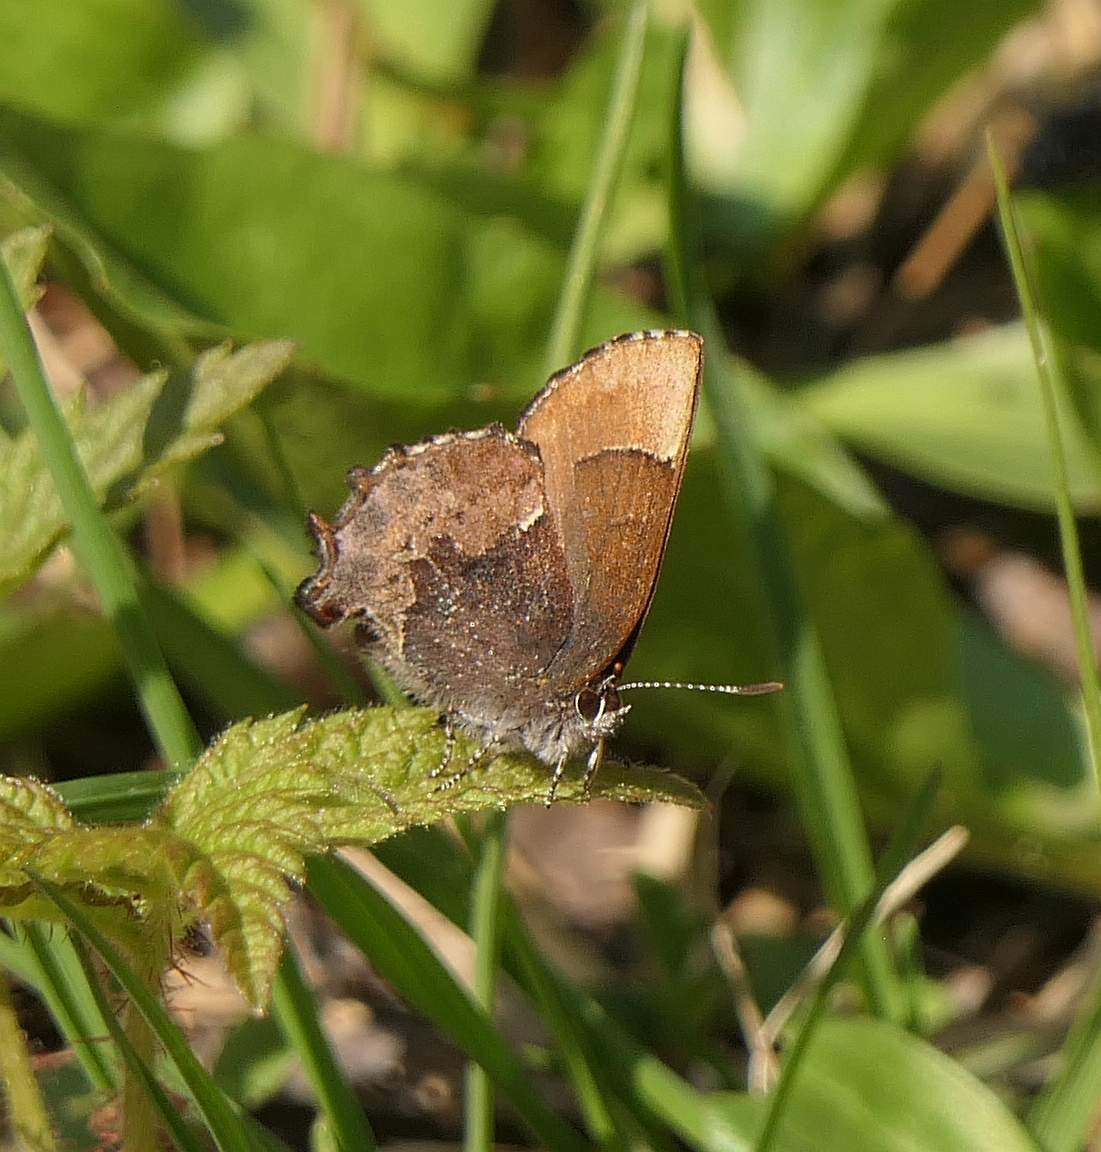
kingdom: Animalia
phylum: Arthropoda
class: Insecta
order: Lepidoptera
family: Lycaenidae
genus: Incisalia
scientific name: Incisalia henrici
